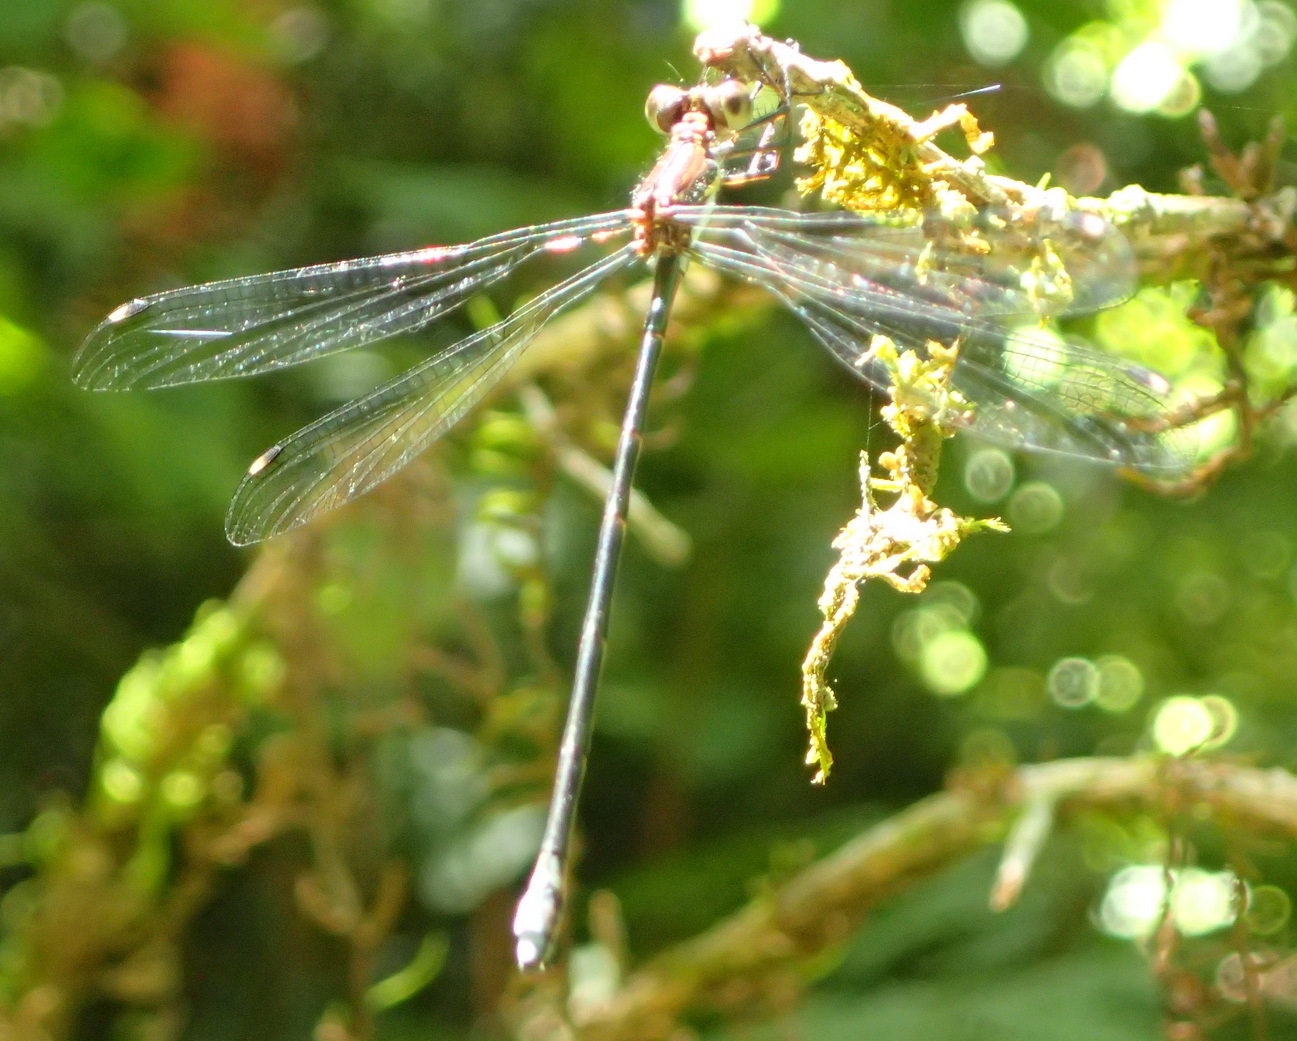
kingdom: Animalia
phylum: Arthropoda
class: Insecta
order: Odonata
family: Synlestidae
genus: Chlorolestes
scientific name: Chlorolestes tessellatus
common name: Forest malachite
